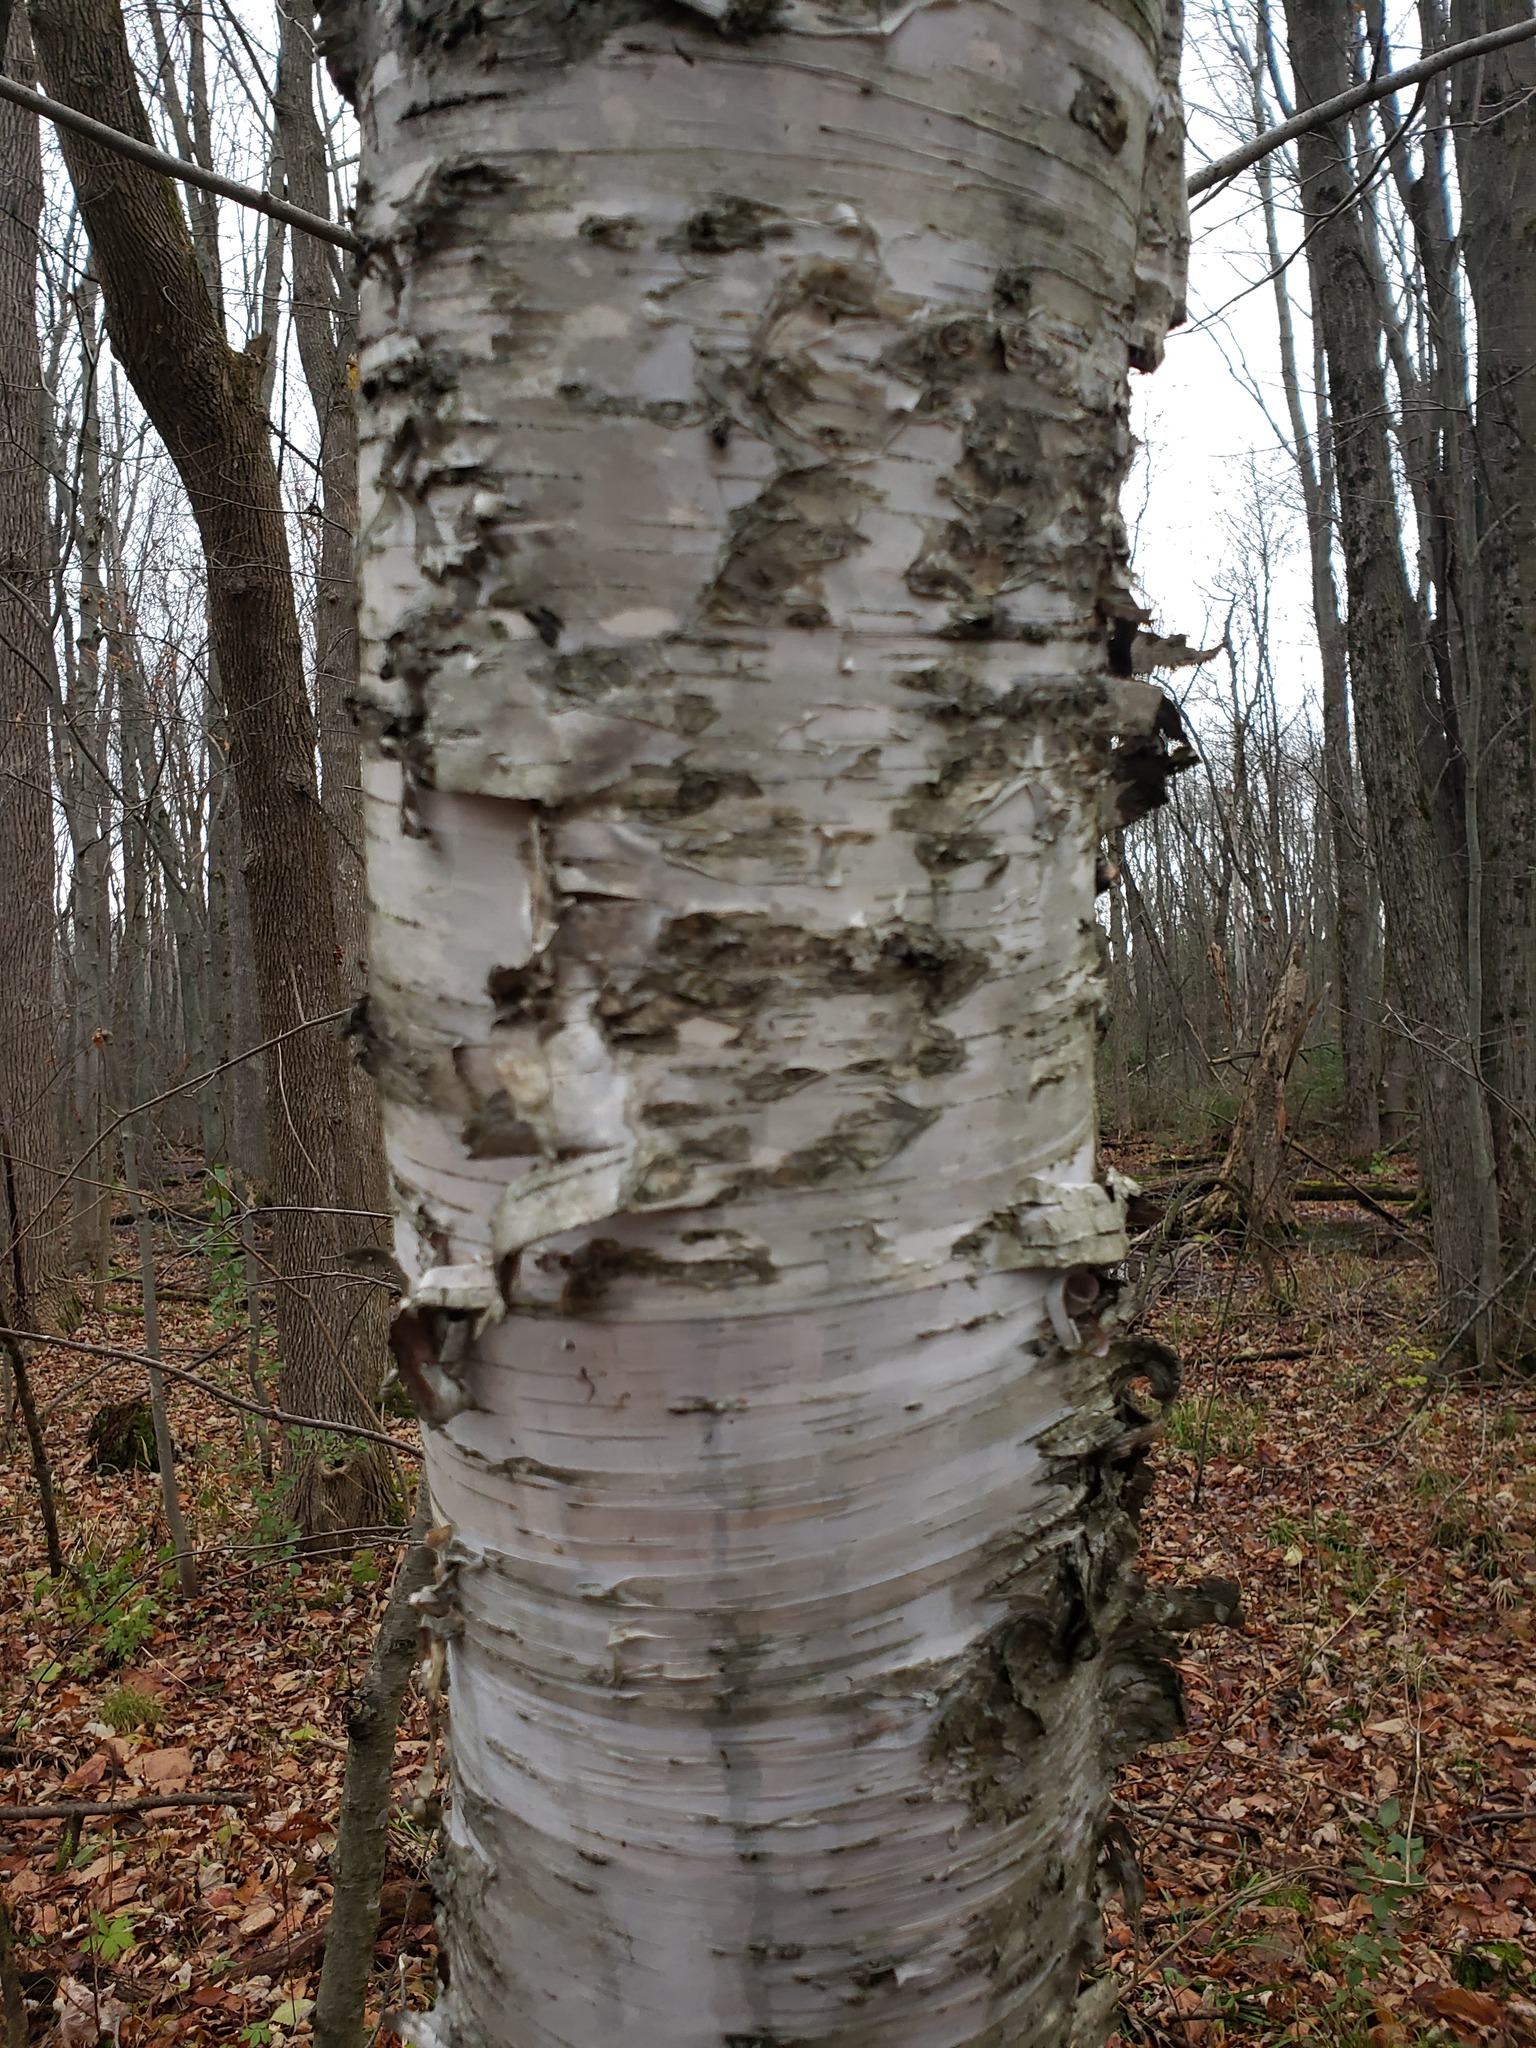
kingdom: Plantae
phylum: Tracheophyta
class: Magnoliopsida
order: Fagales
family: Betulaceae
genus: Betula
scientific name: Betula papyrifera
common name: Paper birch
